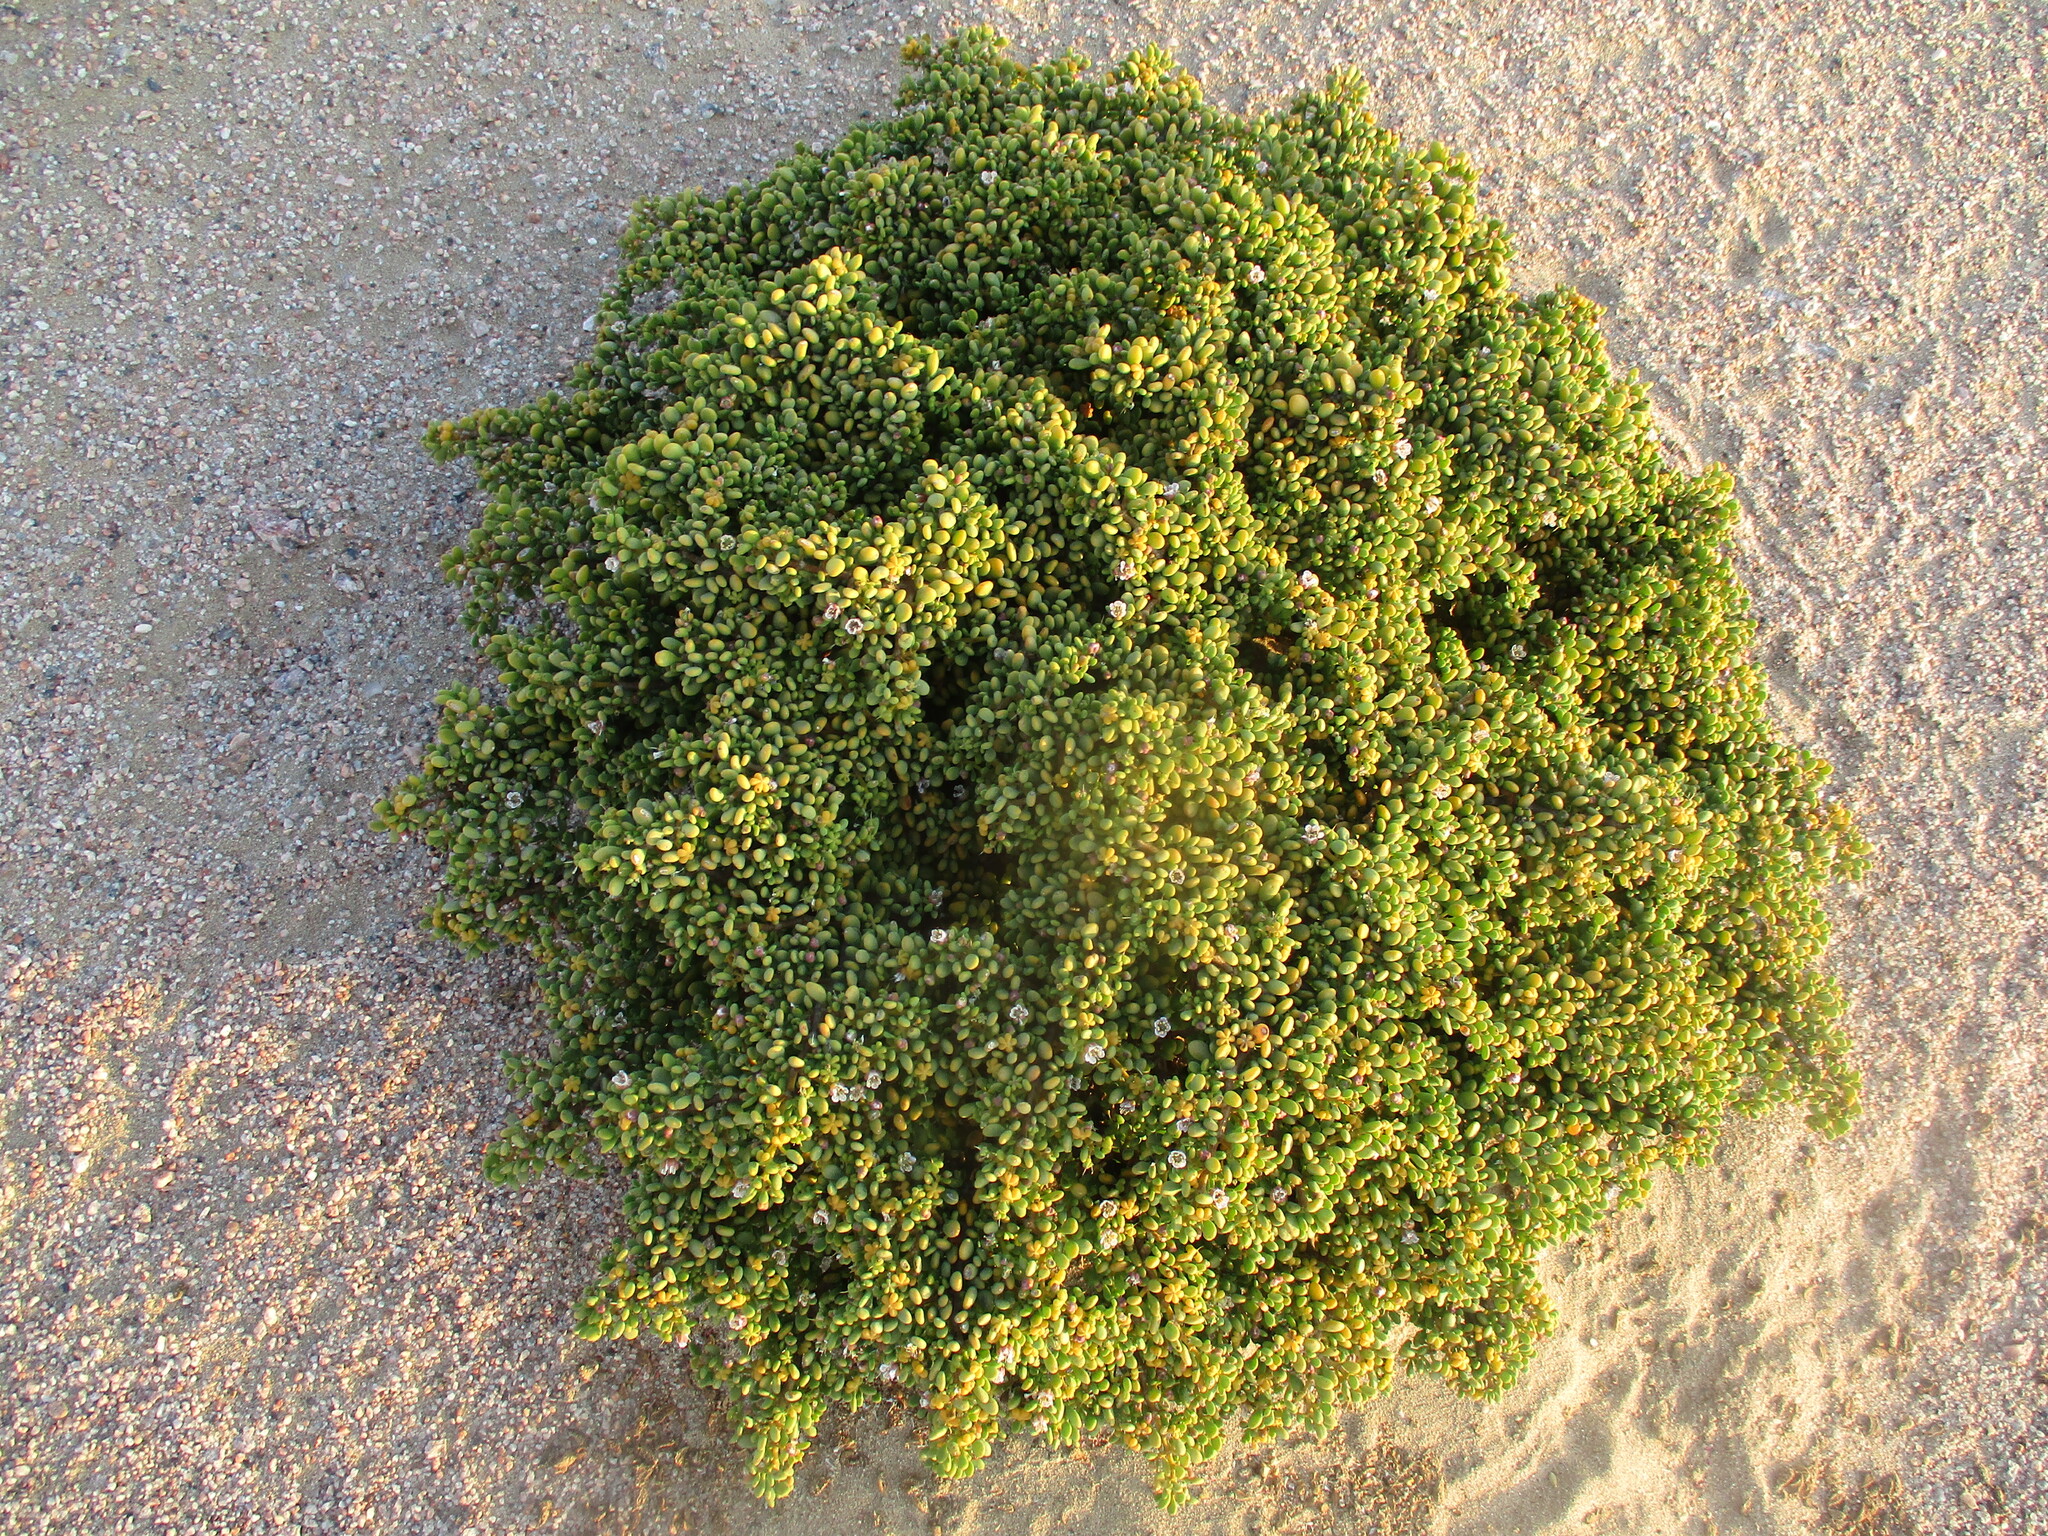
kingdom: Plantae
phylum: Tracheophyta
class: Magnoliopsida
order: Zygophyllales
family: Zygophyllaceae
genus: Tetraena
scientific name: Tetraena clavata
